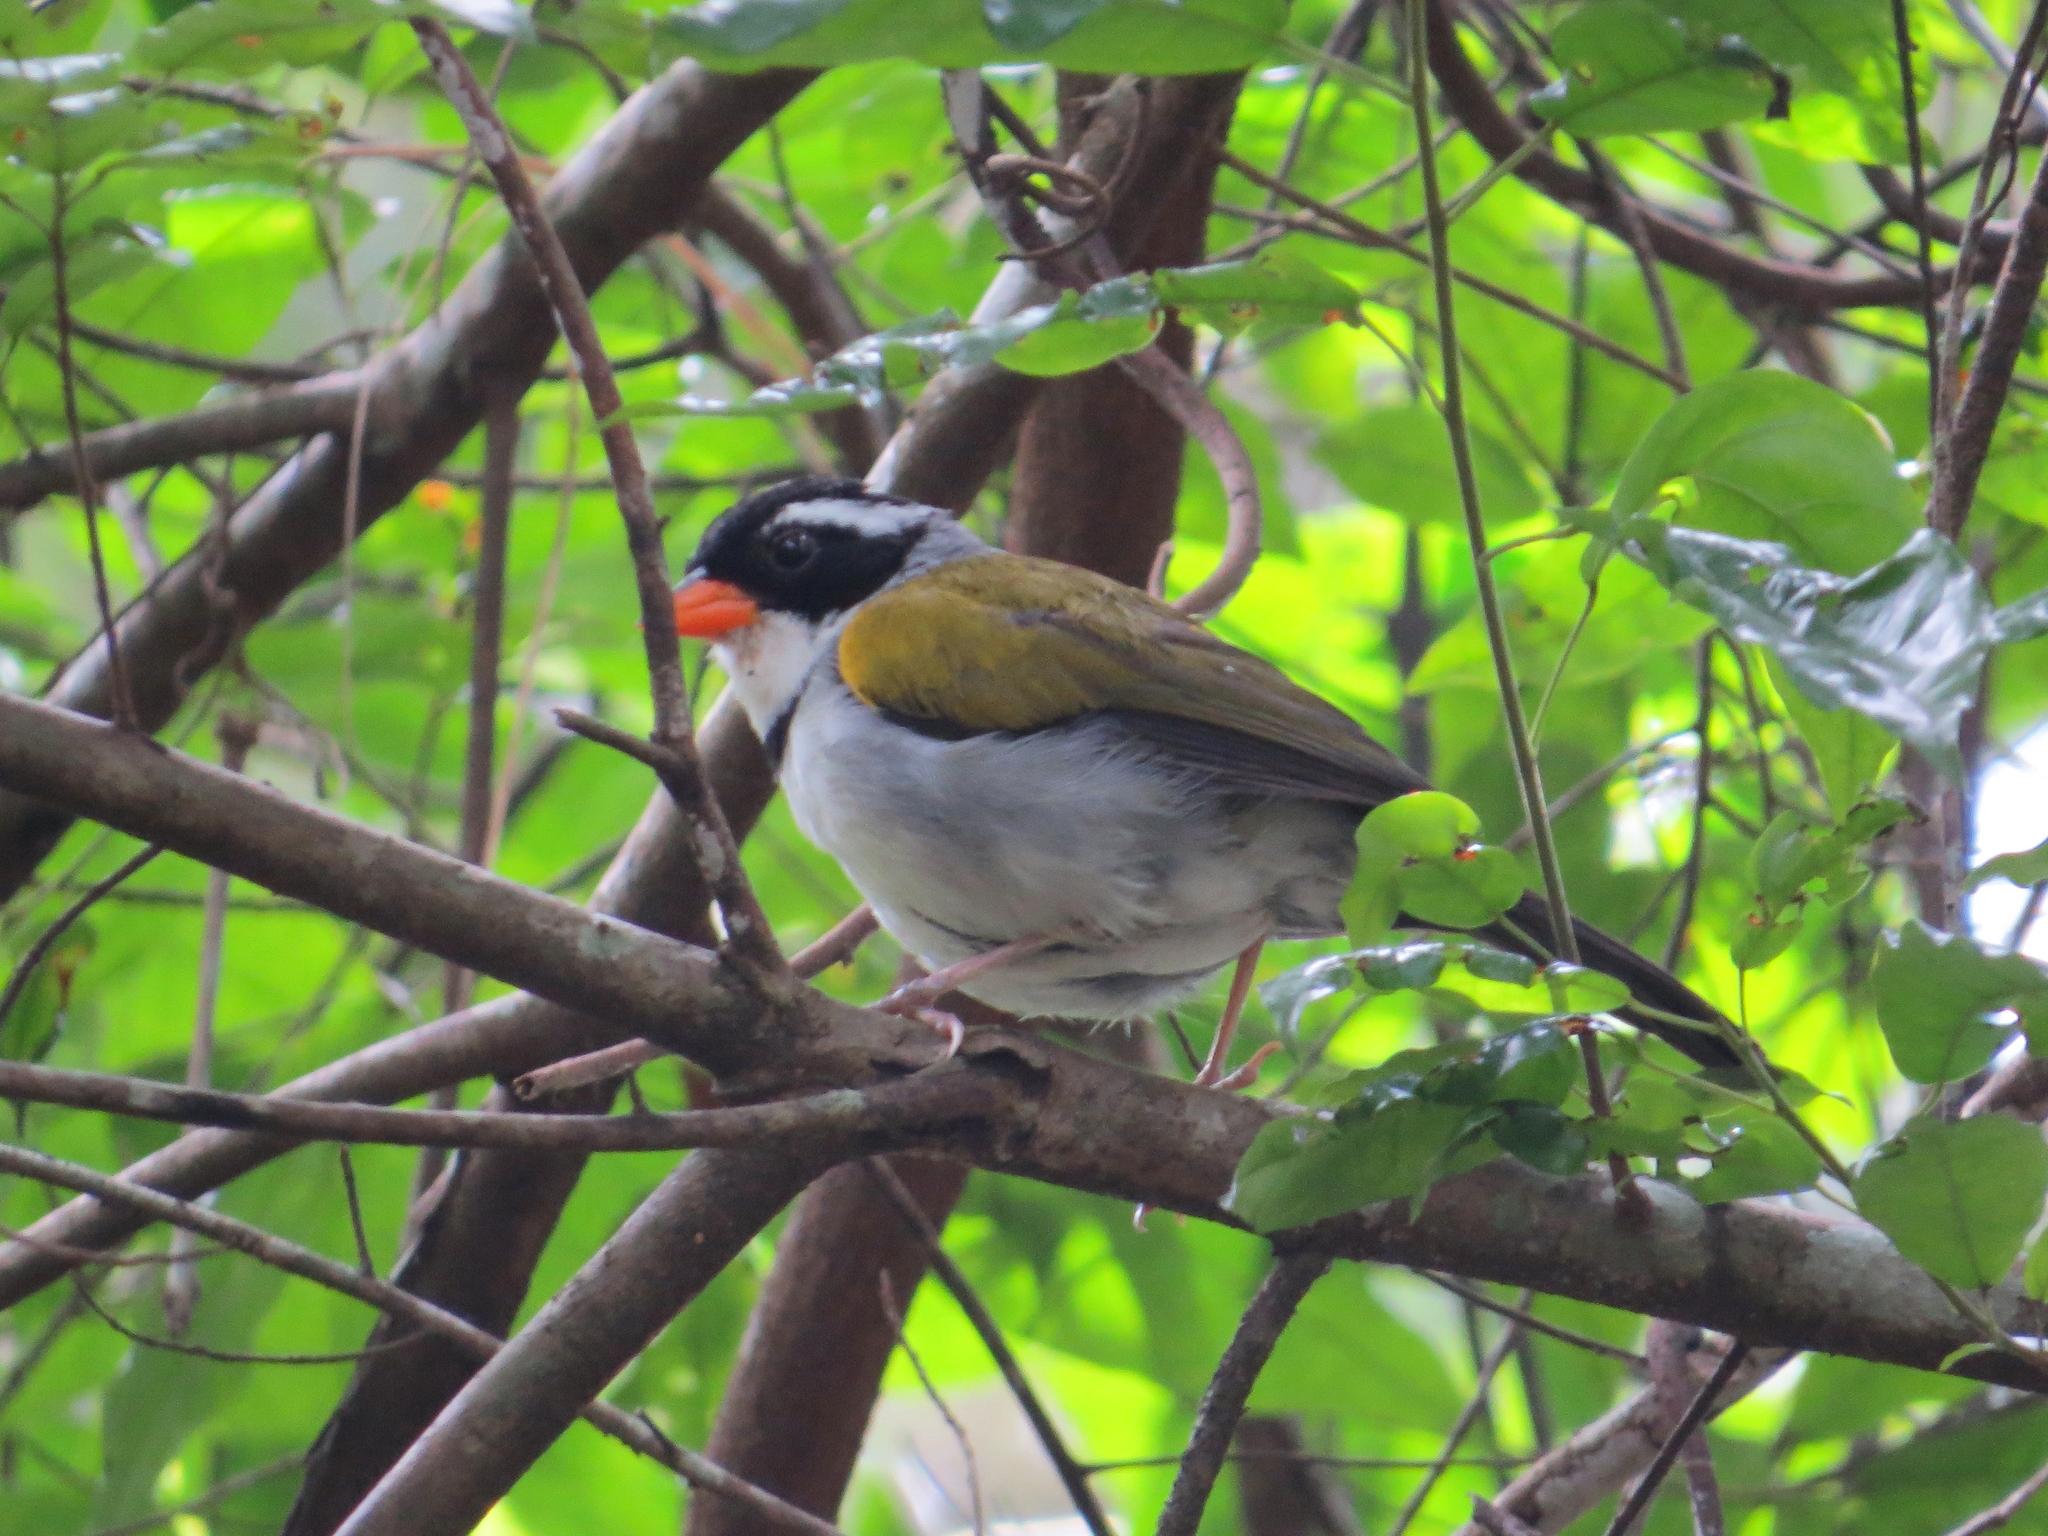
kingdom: Animalia
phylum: Chordata
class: Aves
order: Passeriformes
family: Passerellidae
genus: Arremon
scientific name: Arremon flavirostris
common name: Saffron-billed sparrow
